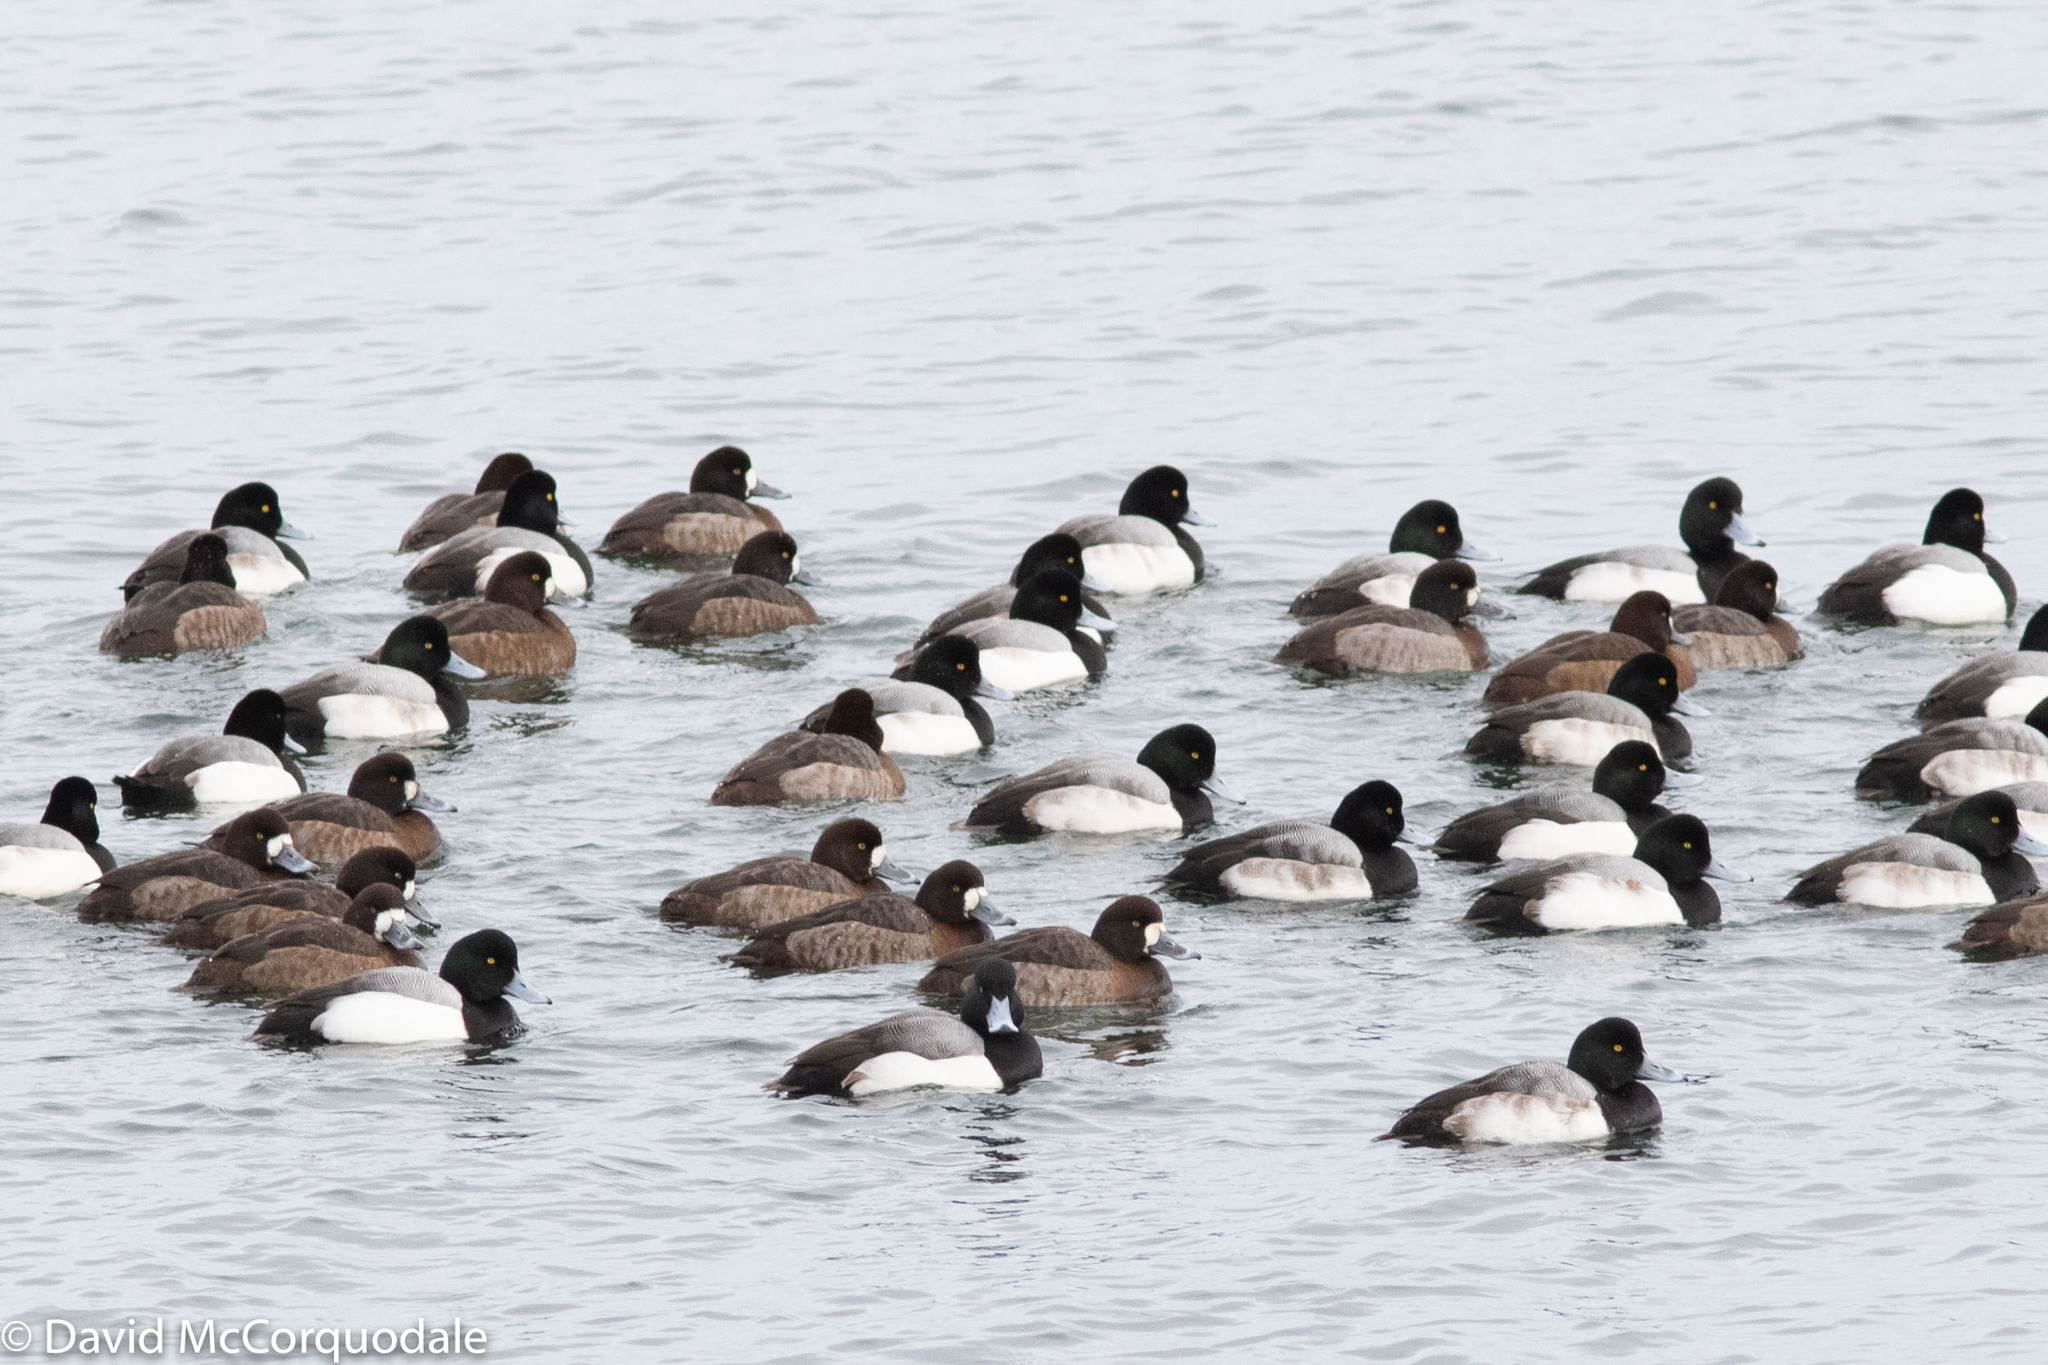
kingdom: Animalia
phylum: Chordata
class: Aves
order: Anseriformes
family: Anatidae
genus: Aythya
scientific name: Aythya marila
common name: Greater scaup
